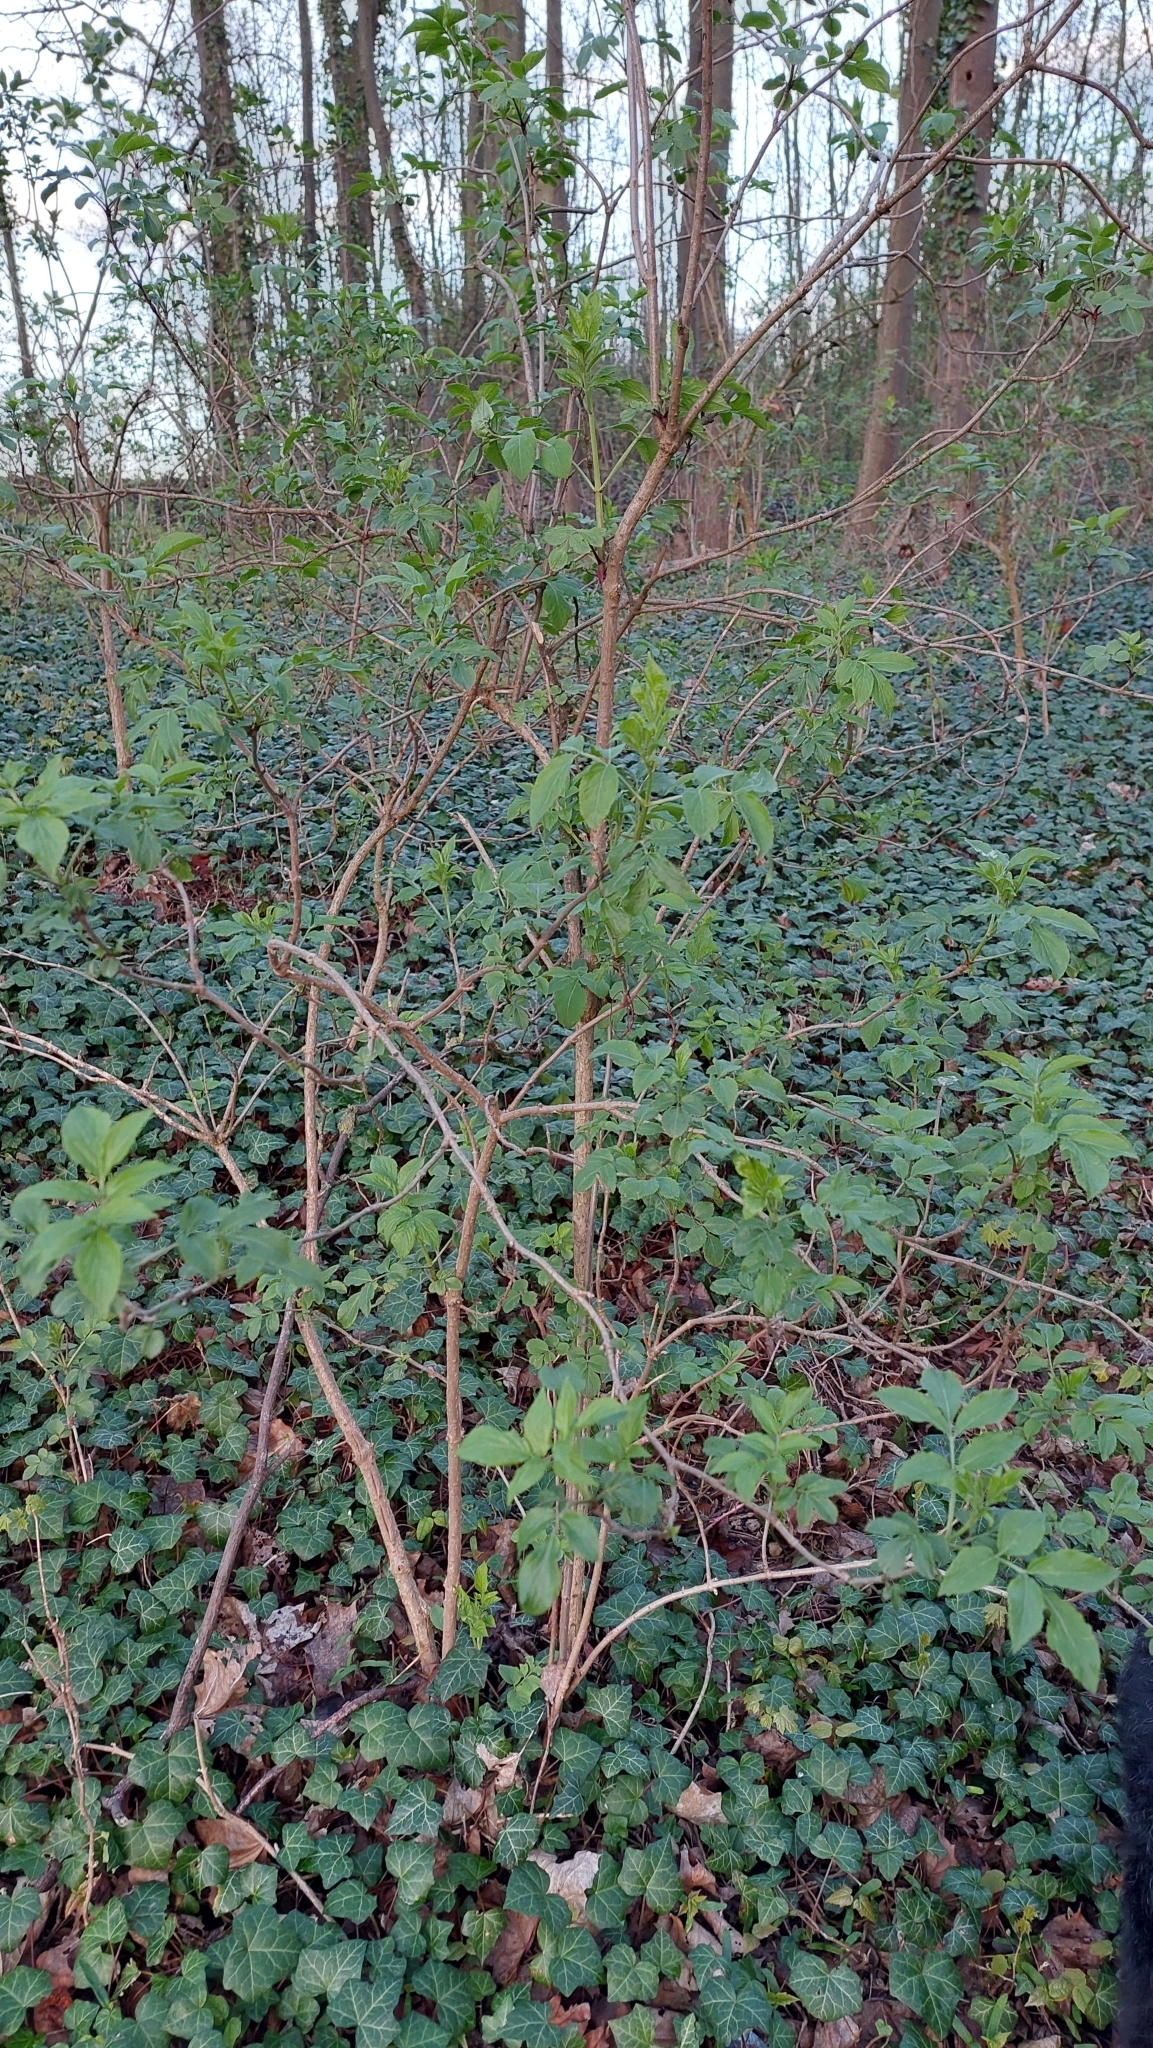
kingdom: Plantae
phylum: Tracheophyta
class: Magnoliopsida
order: Dipsacales
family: Viburnaceae
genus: Sambucus
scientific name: Sambucus nigra
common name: Elder
